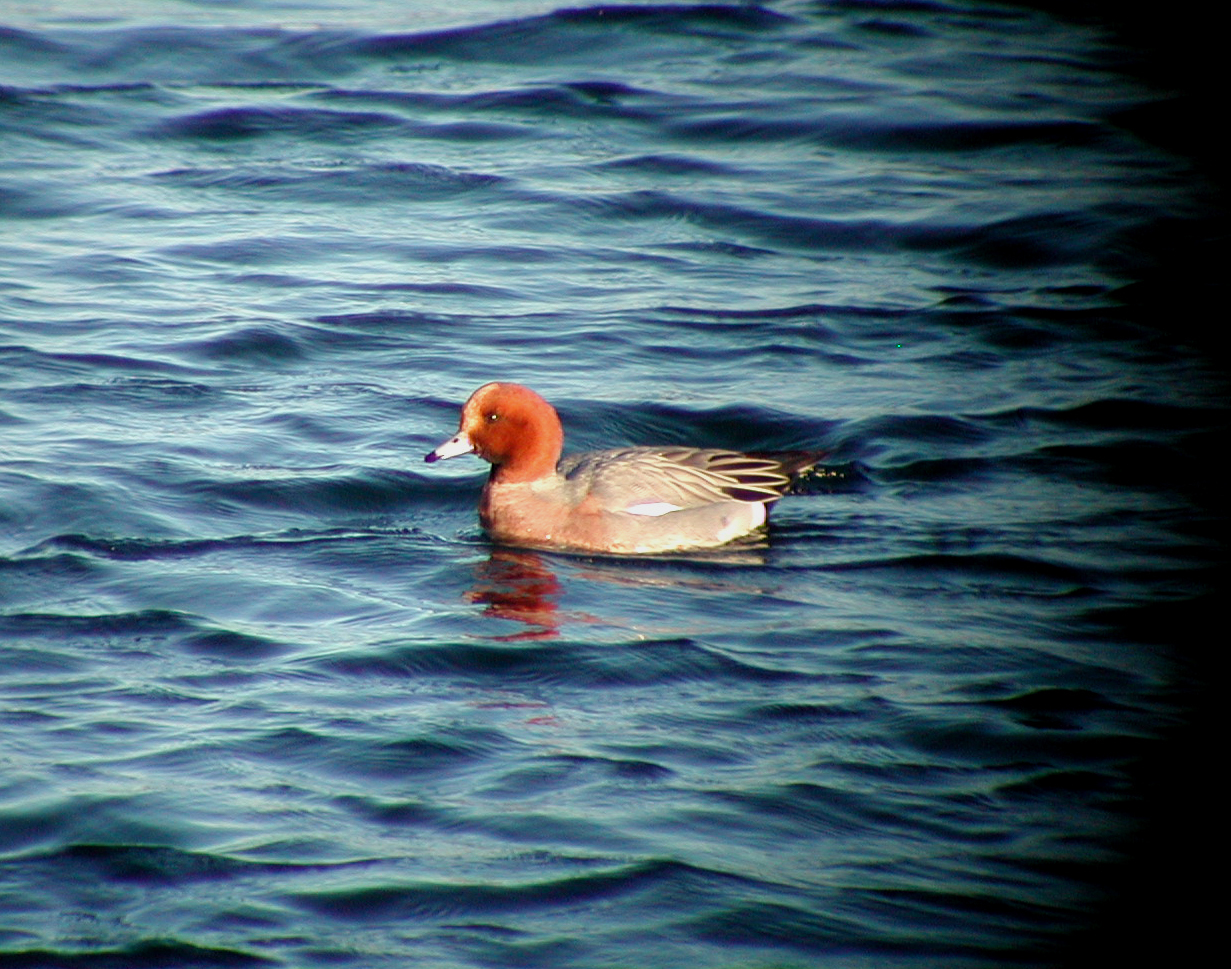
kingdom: Animalia
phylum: Chordata
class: Aves
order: Anseriformes
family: Anatidae
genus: Mareca
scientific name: Mareca penelope
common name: Eurasian wigeon
